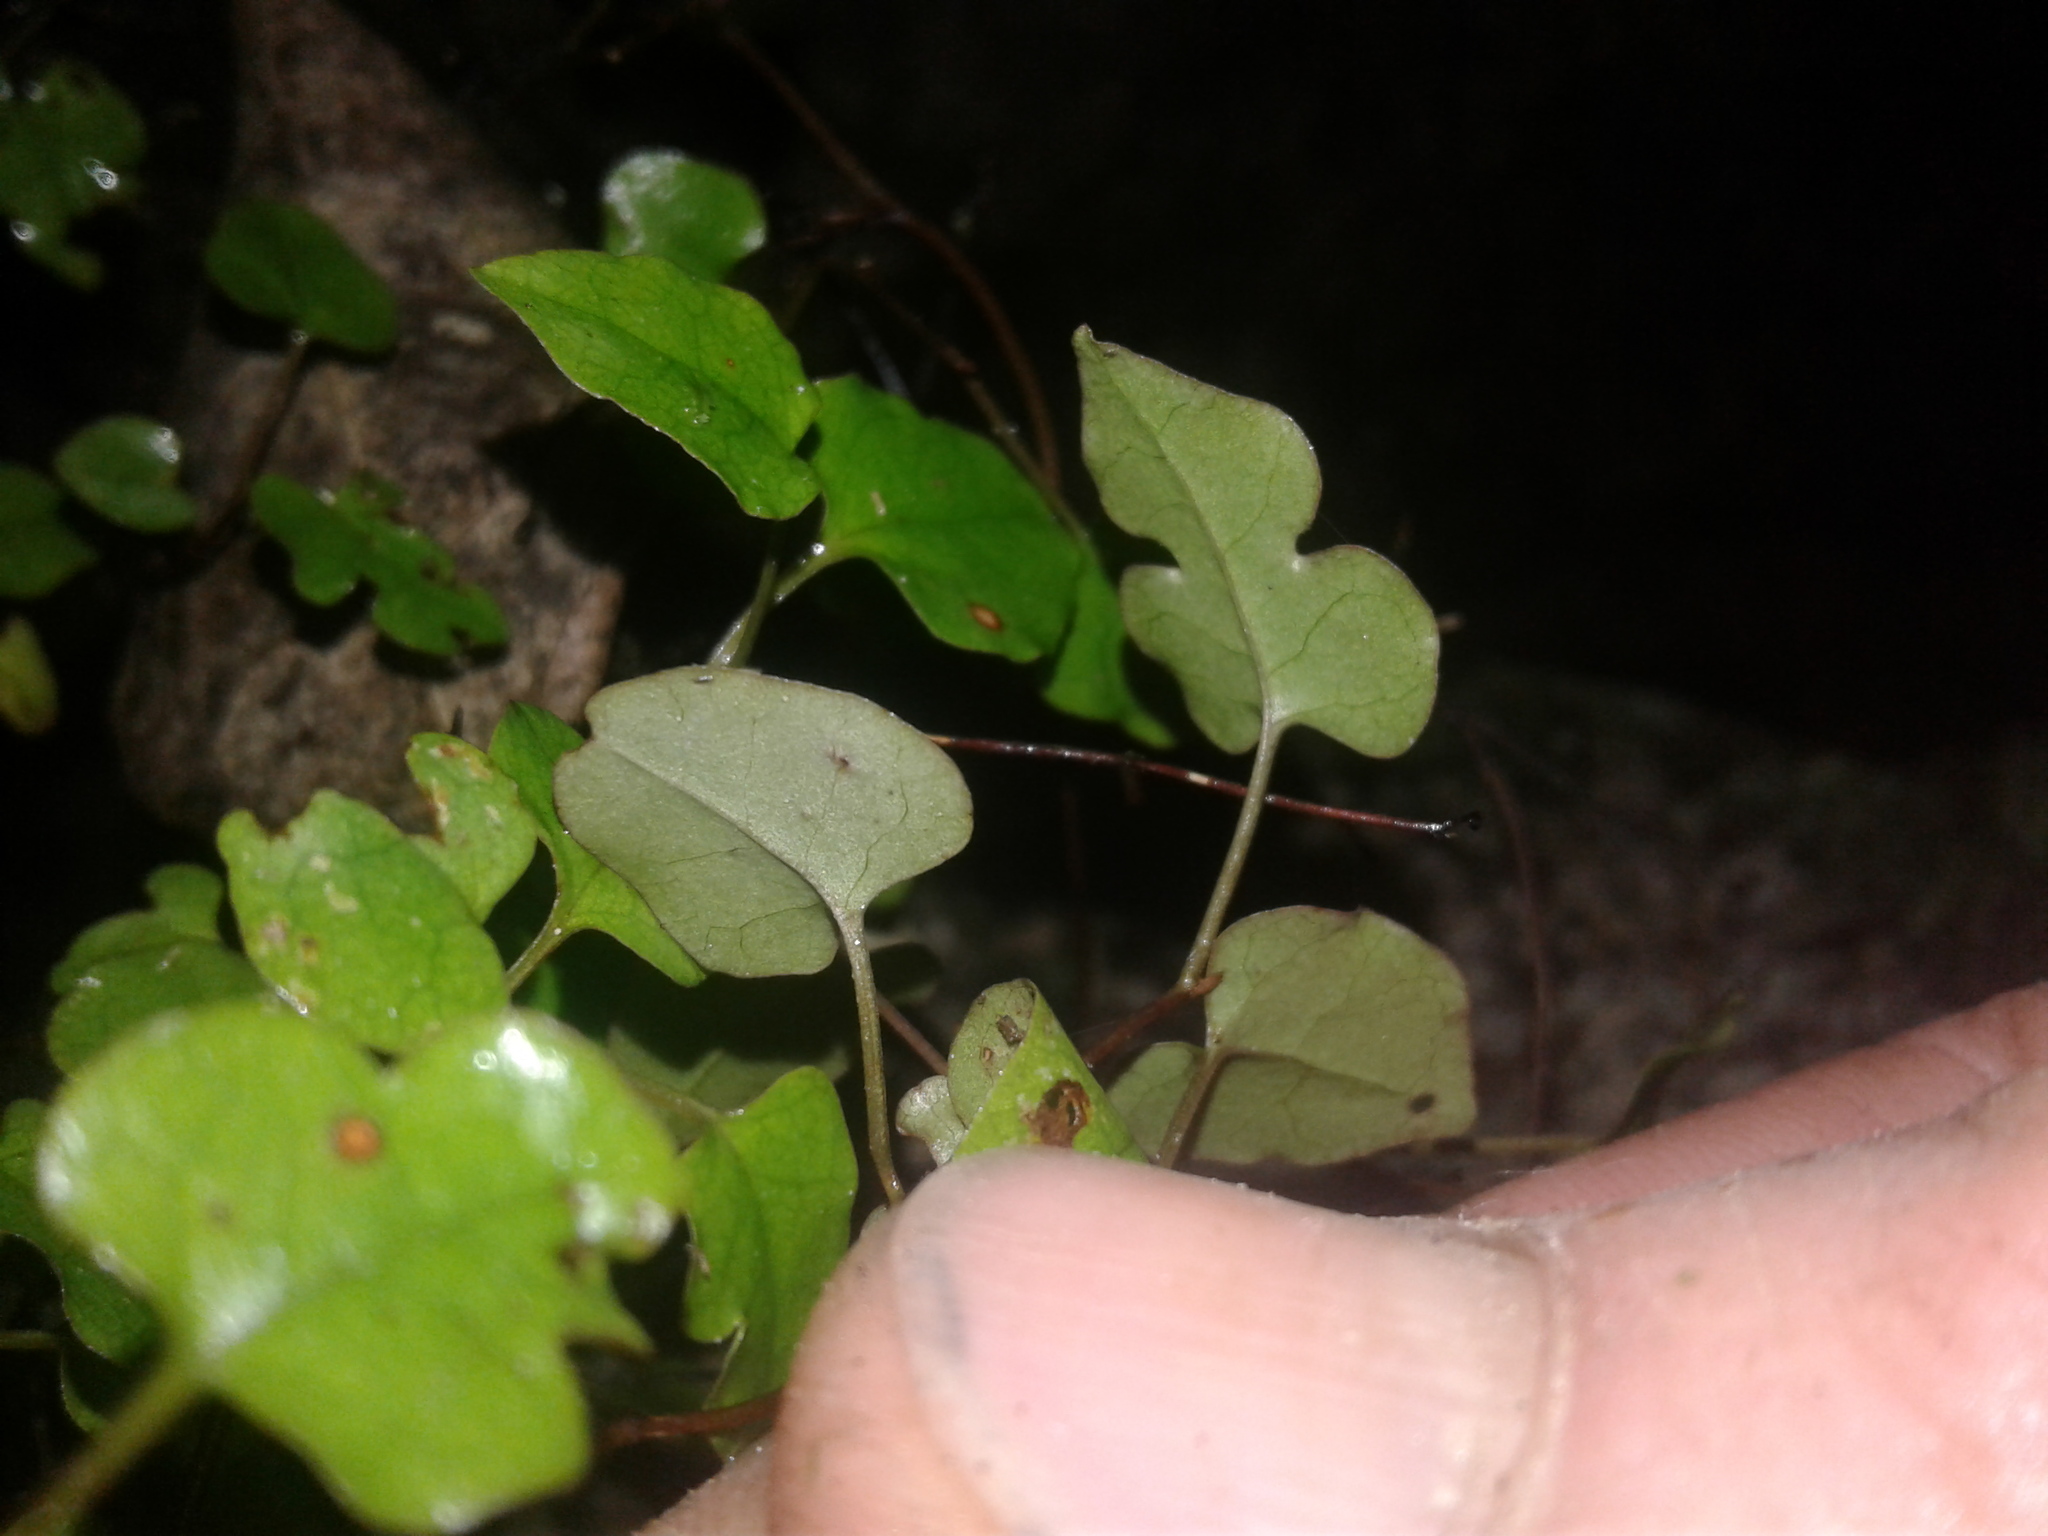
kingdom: Plantae
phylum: Tracheophyta
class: Magnoliopsida
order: Caryophyllales
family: Polygonaceae
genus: Muehlenbeckia
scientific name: Muehlenbeckia australis
